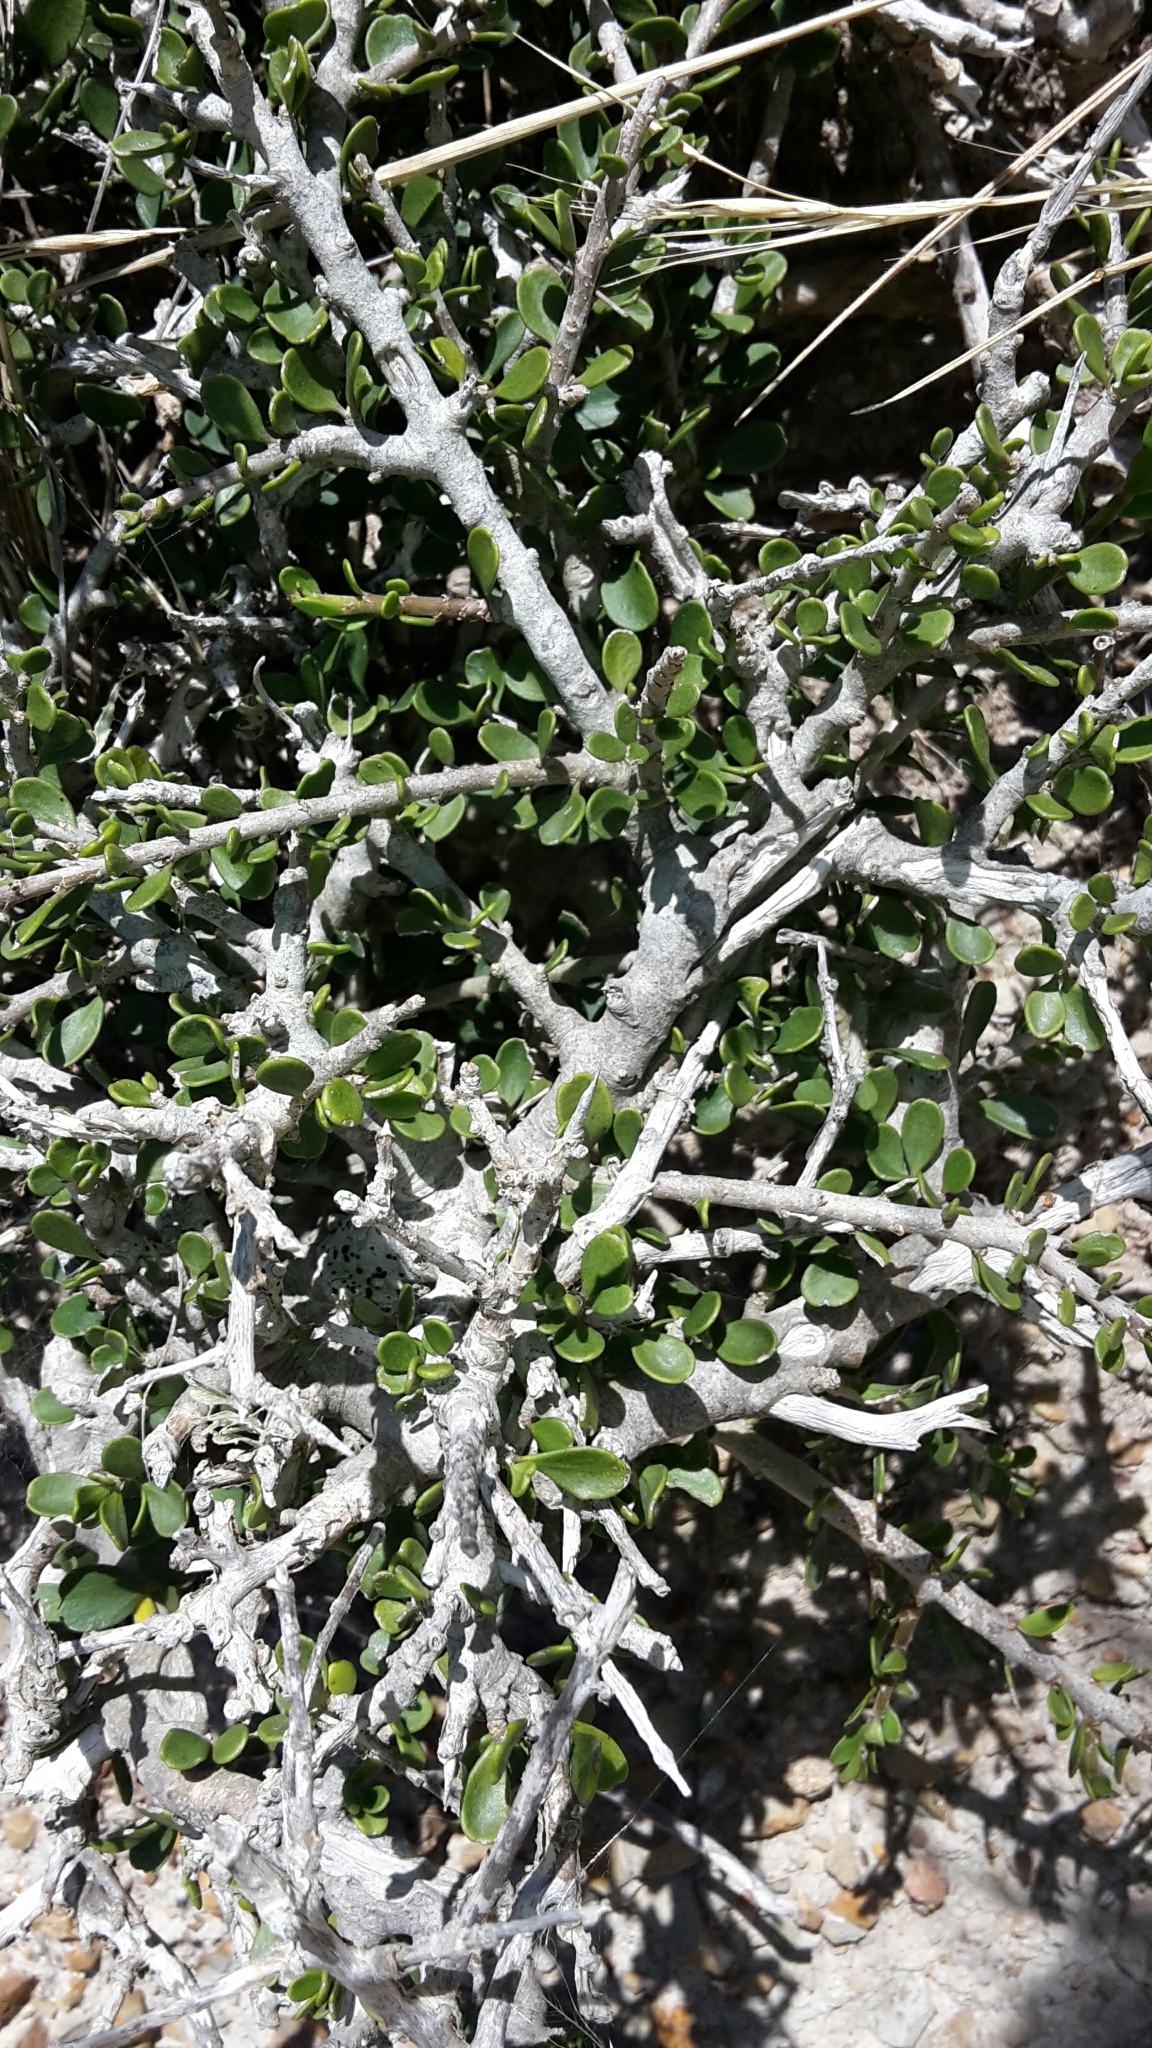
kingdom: Plantae
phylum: Tracheophyta
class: Magnoliopsida
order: Malpighiales
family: Violaceae
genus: Melicytus
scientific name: Melicytus crassifolius
